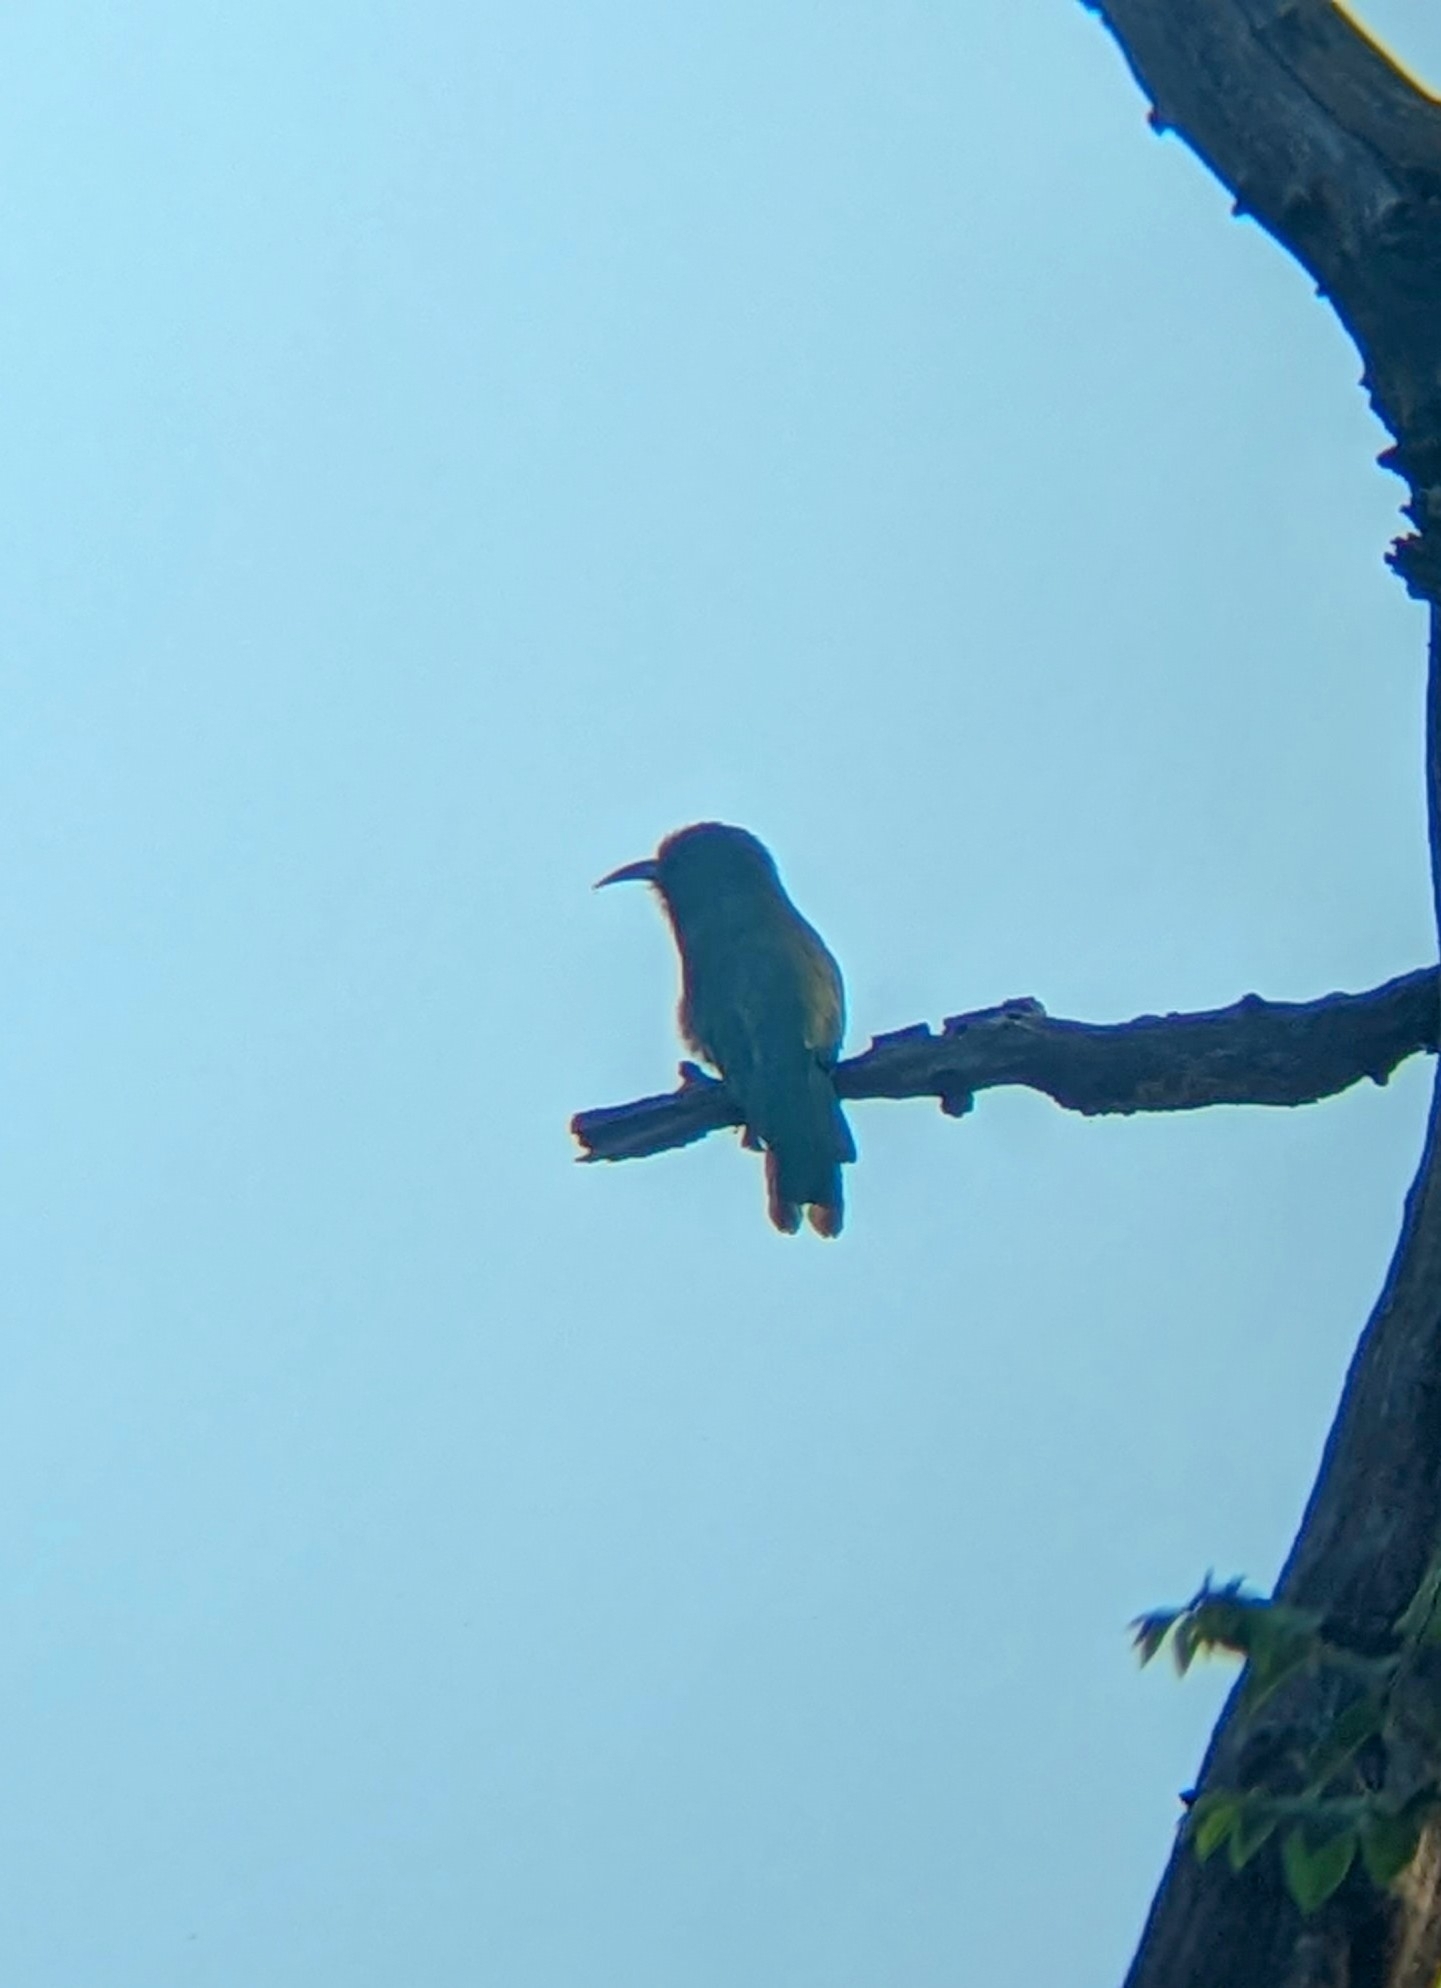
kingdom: Animalia
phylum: Chordata
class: Aves
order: Coraciiformes
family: Meropidae
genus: Nyctyornis
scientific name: Nyctyornis athertoni
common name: Blue-bearded bee-eater
